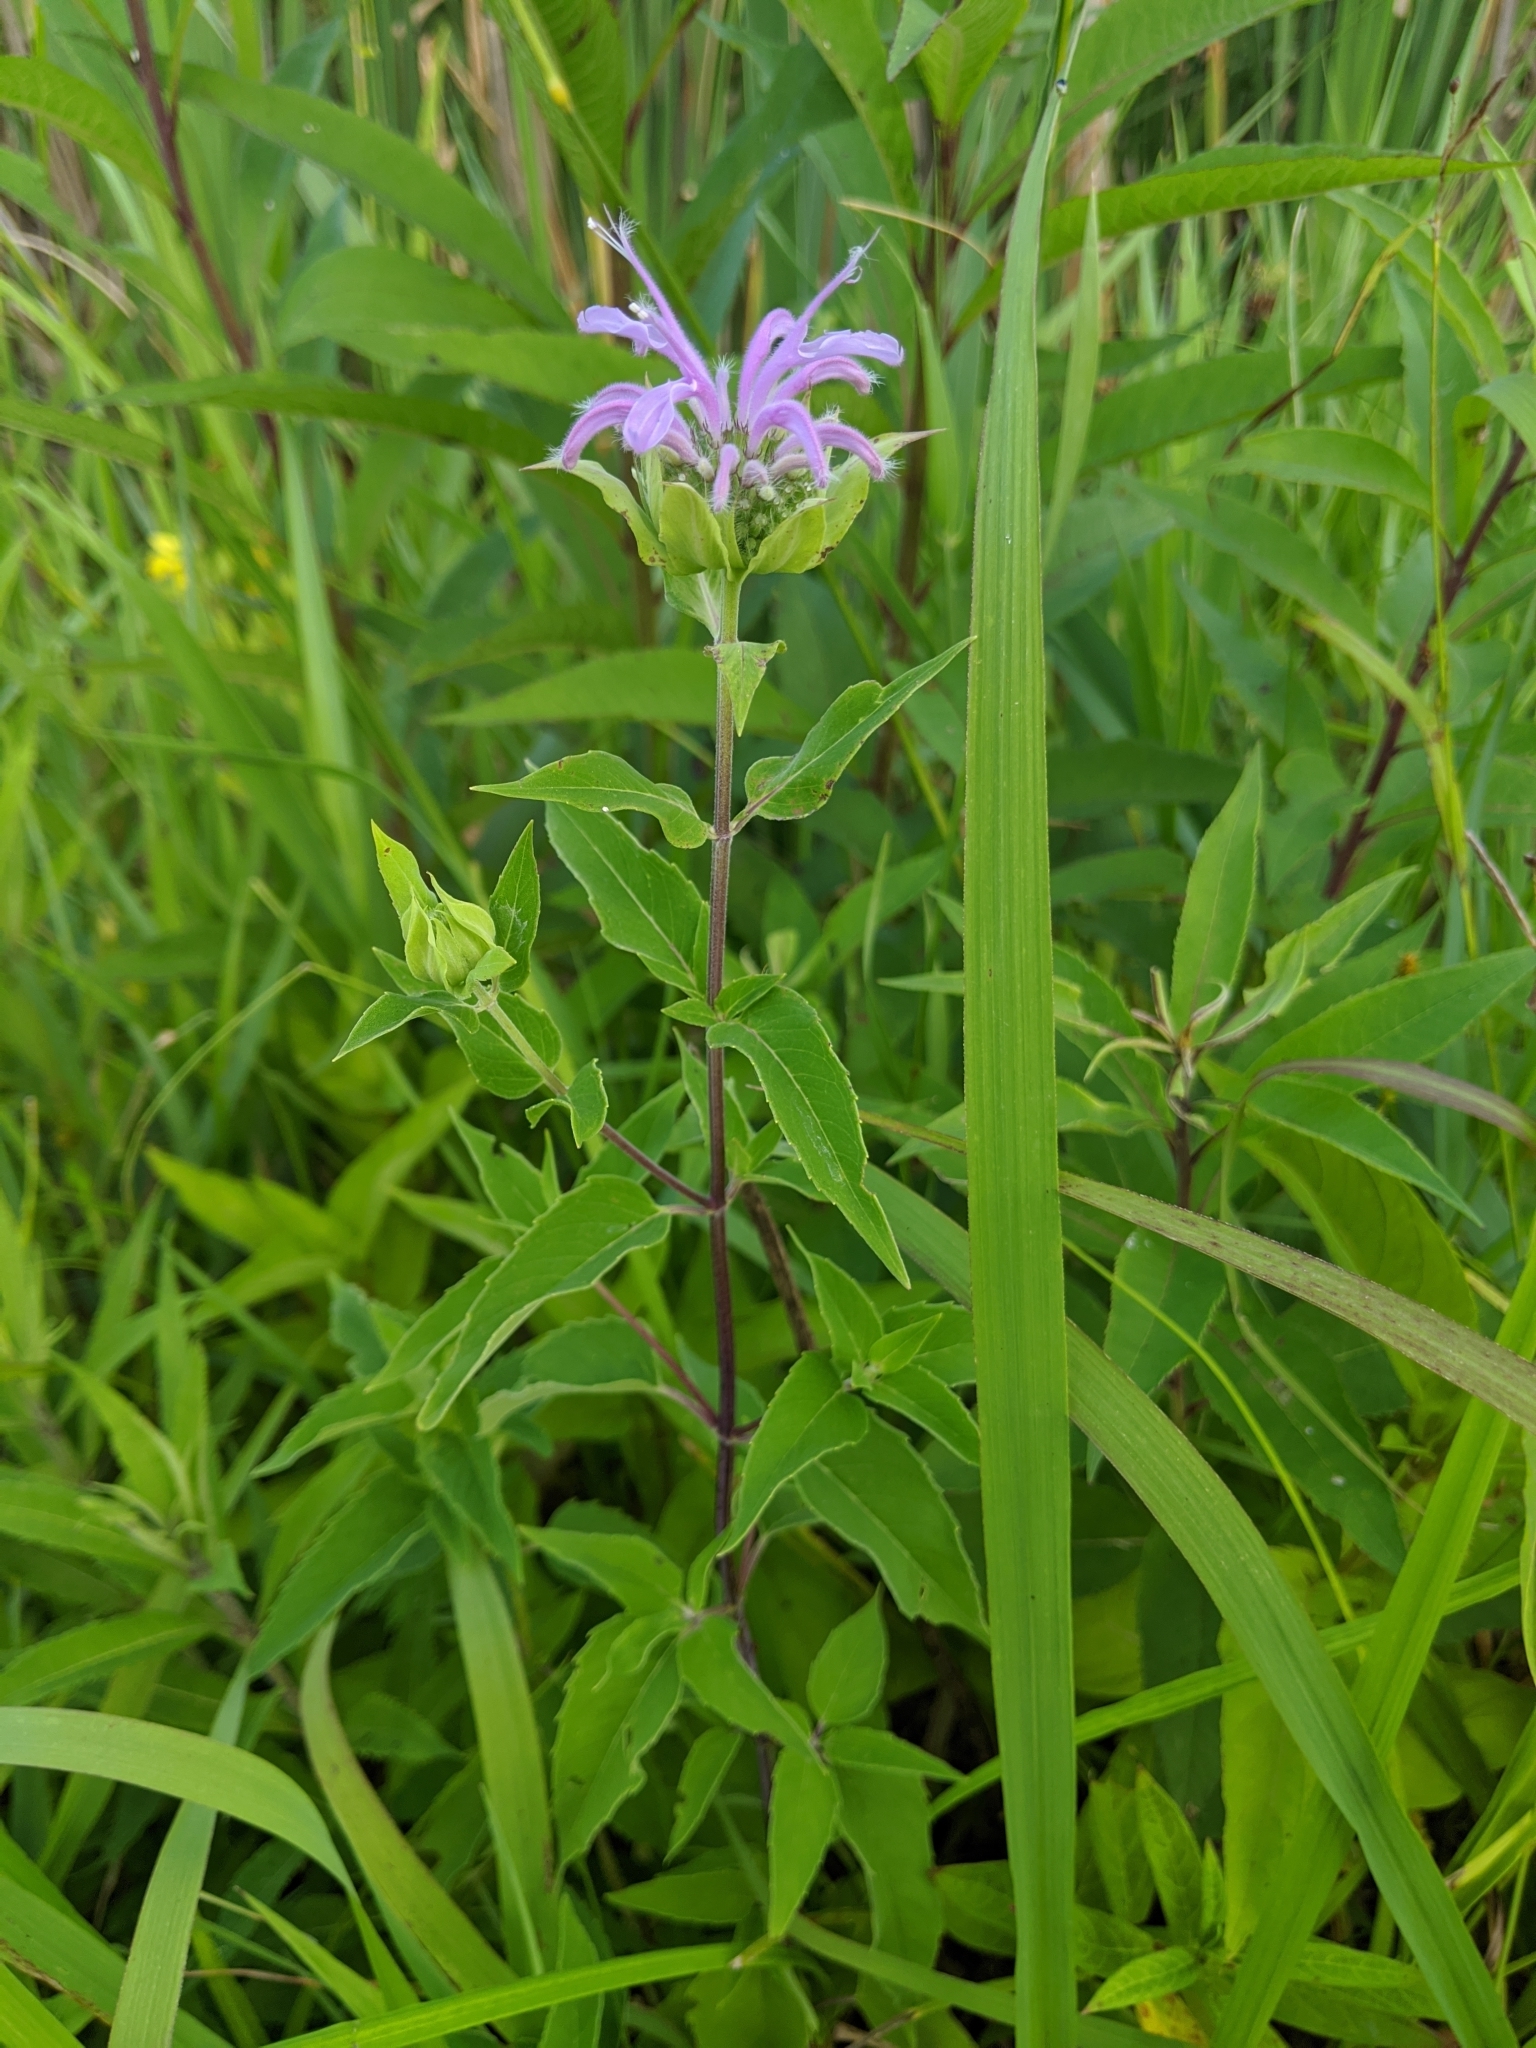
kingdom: Plantae
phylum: Tracheophyta
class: Magnoliopsida
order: Lamiales
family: Lamiaceae
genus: Monarda
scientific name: Monarda fistulosa
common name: Purple beebalm
